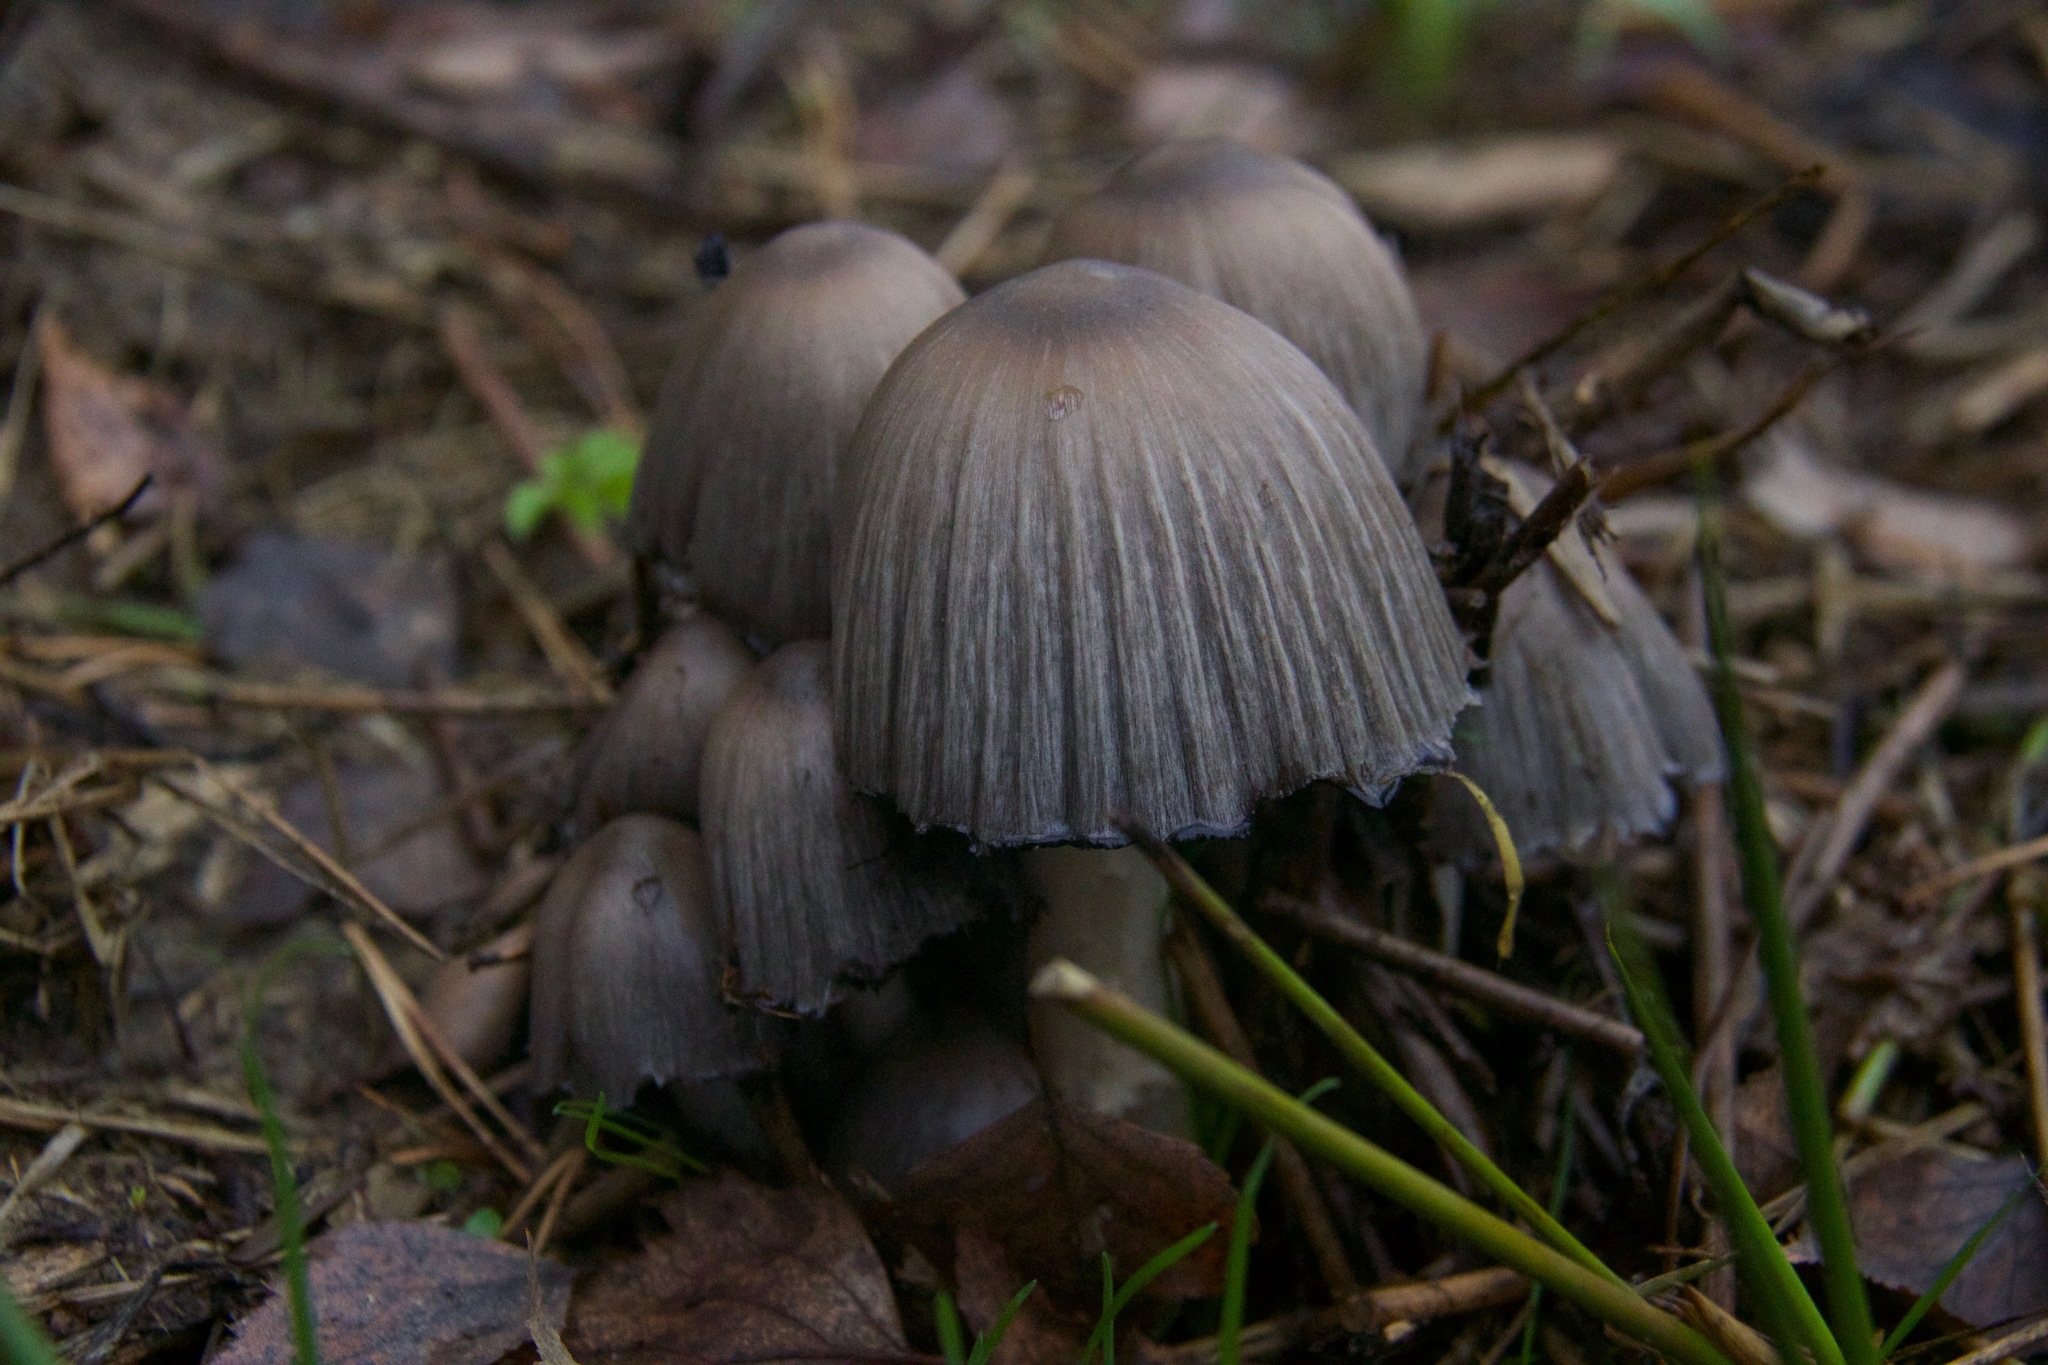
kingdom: Fungi
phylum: Basidiomycota
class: Agaricomycetes
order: Agaricales
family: Psathyrellaceae
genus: Coprinopsis
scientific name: Coprinopsis atramentaria
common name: Common ink-cap
